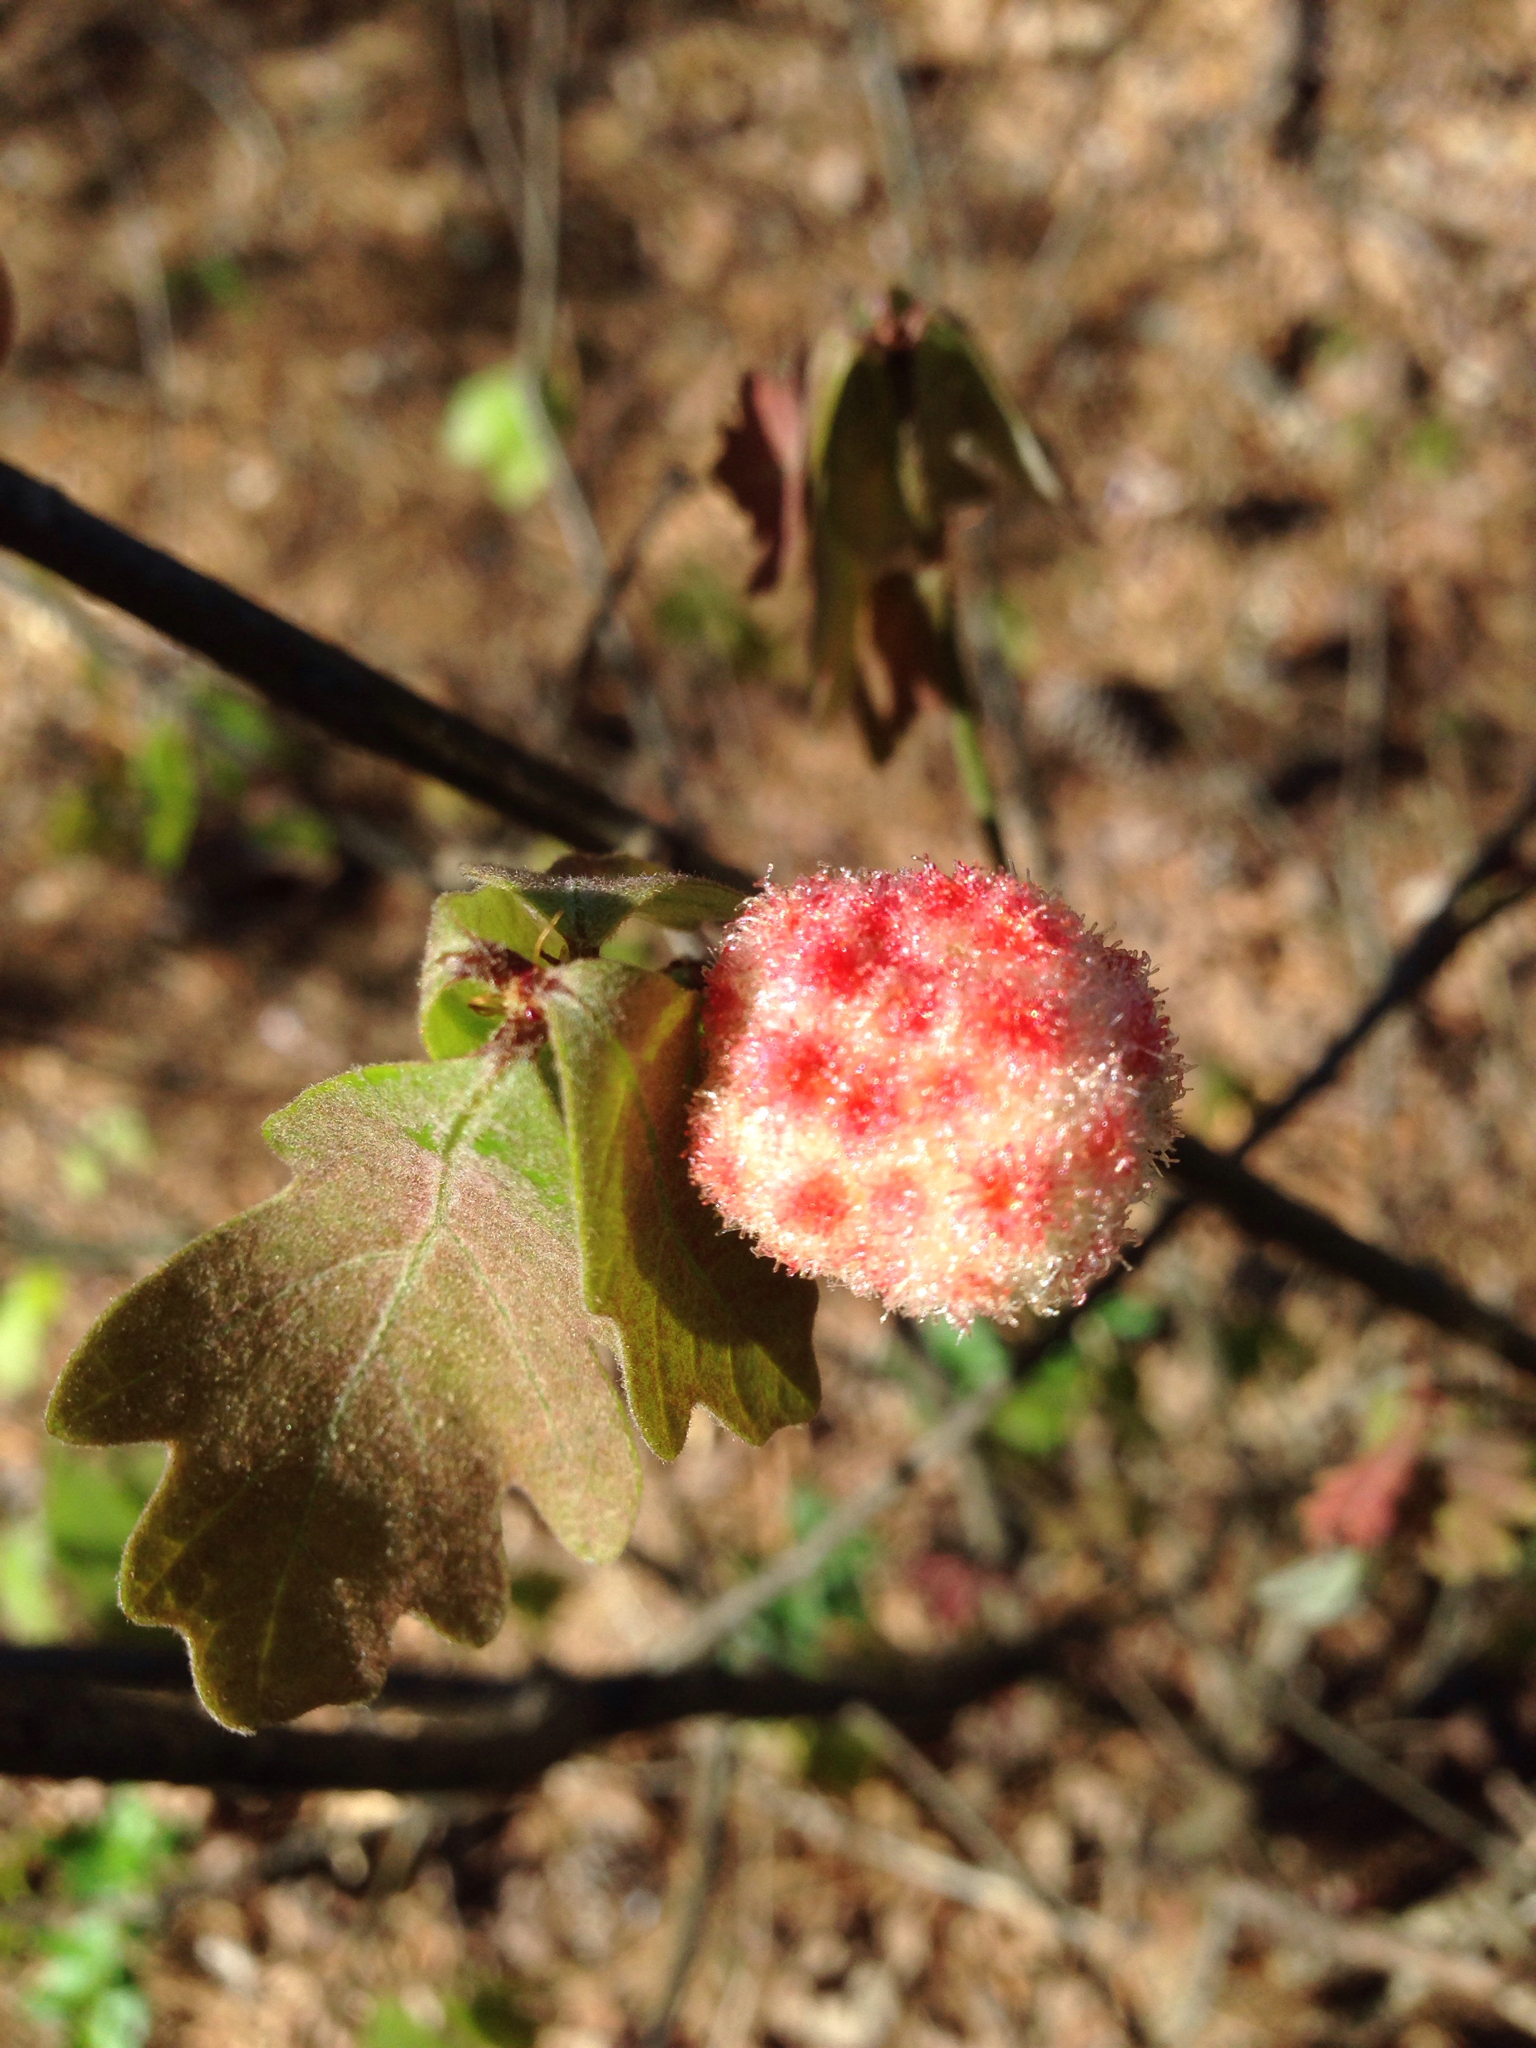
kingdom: Animalia
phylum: Arthropoda
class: Insecta
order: Hymenoptera
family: Cynipidae
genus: Callirhytis
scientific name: Callirhytis
